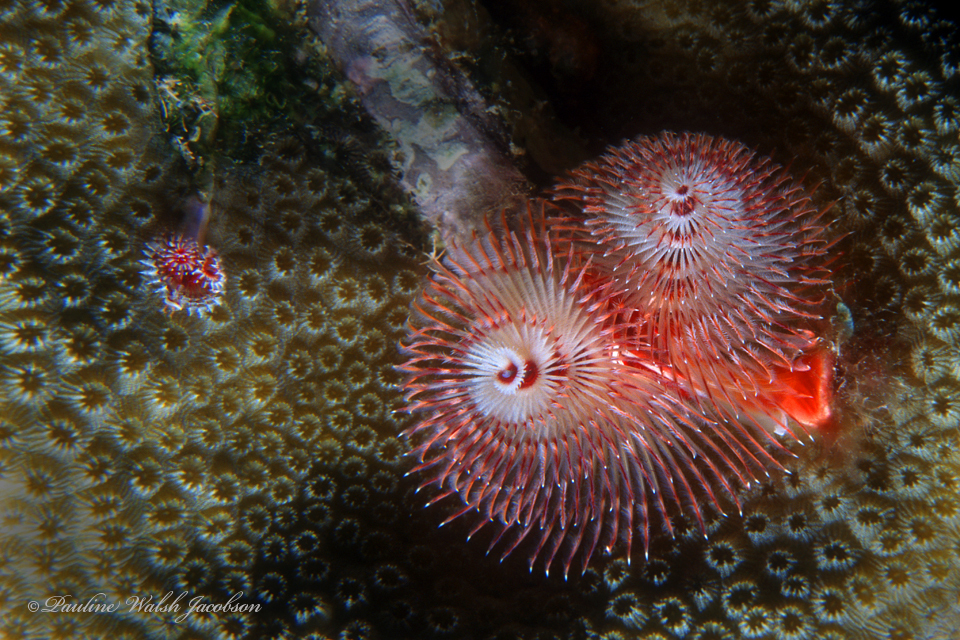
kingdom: Animalia
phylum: Annelida
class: Polychaeta
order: Sabellida
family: Serpulidae
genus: Spirobranchus
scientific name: Spirobranchus giganteus
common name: Christmas tree worm
